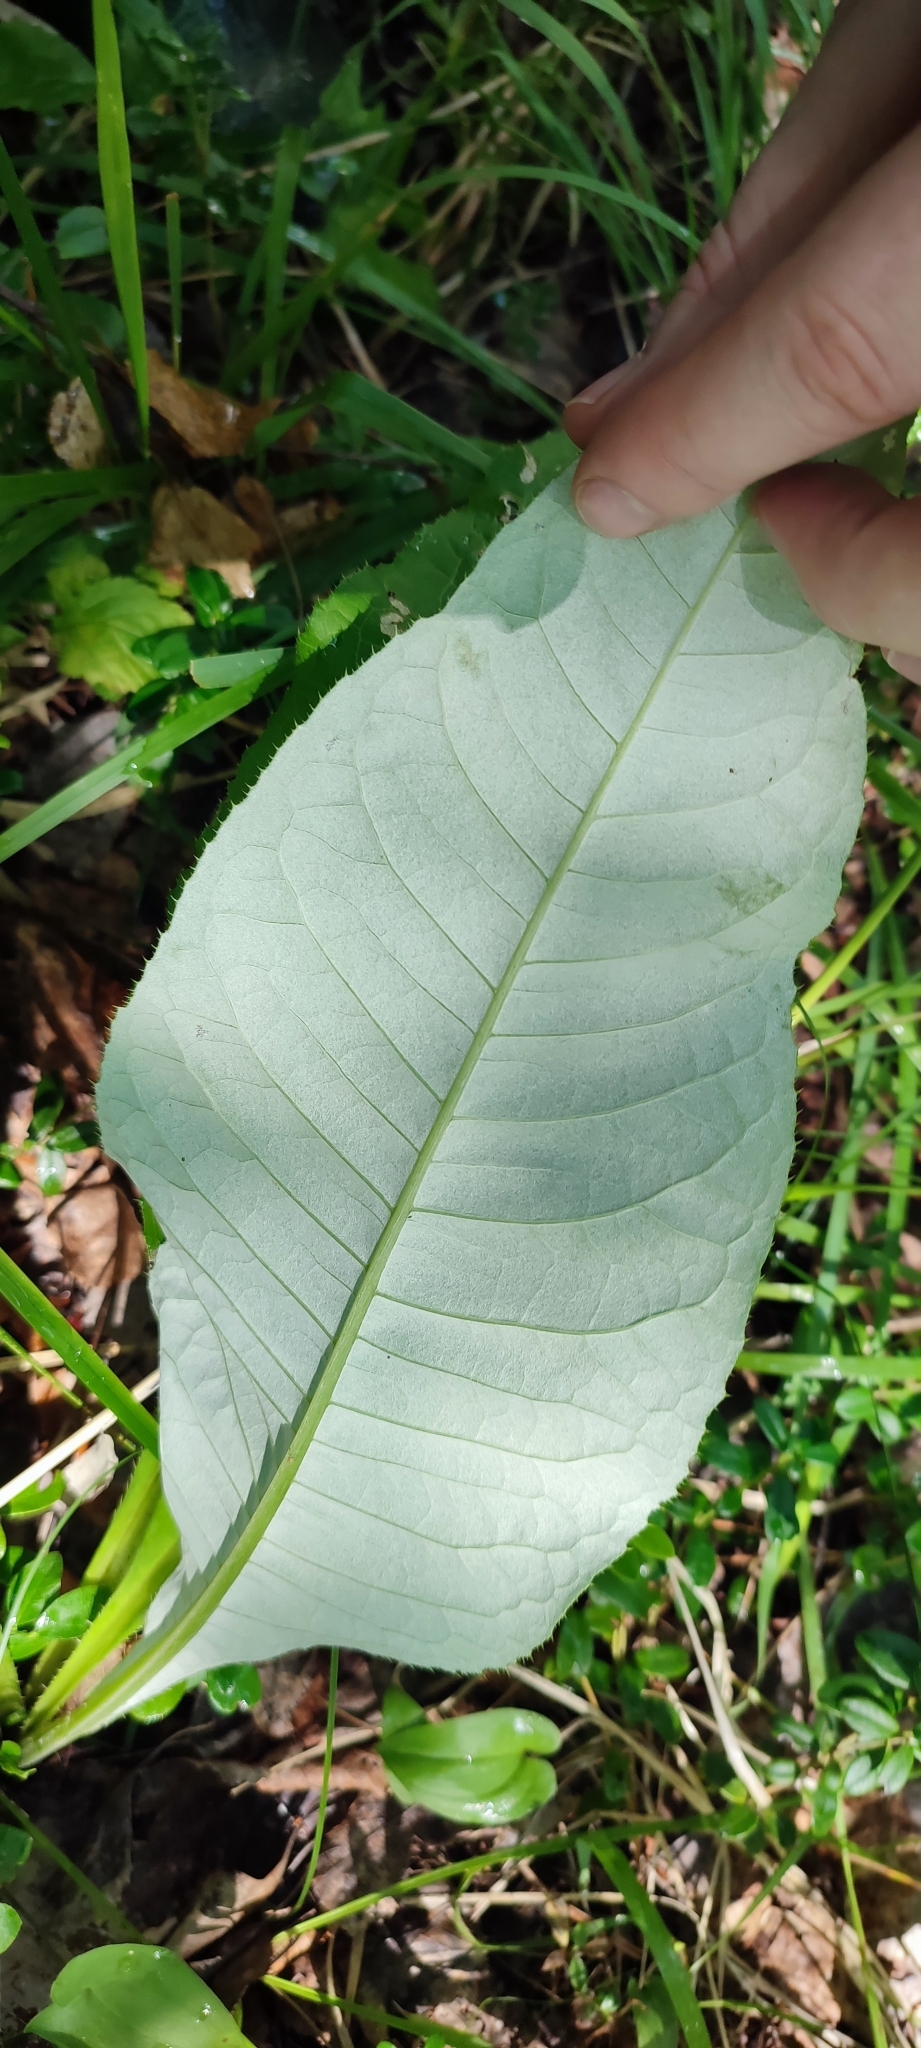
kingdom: Plantae
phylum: Tracheophyta
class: Magnoliopsida
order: Asterales
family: Asteraceae
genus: Cirsium
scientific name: Cirsium heterophyllum
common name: Melancholy thistle
